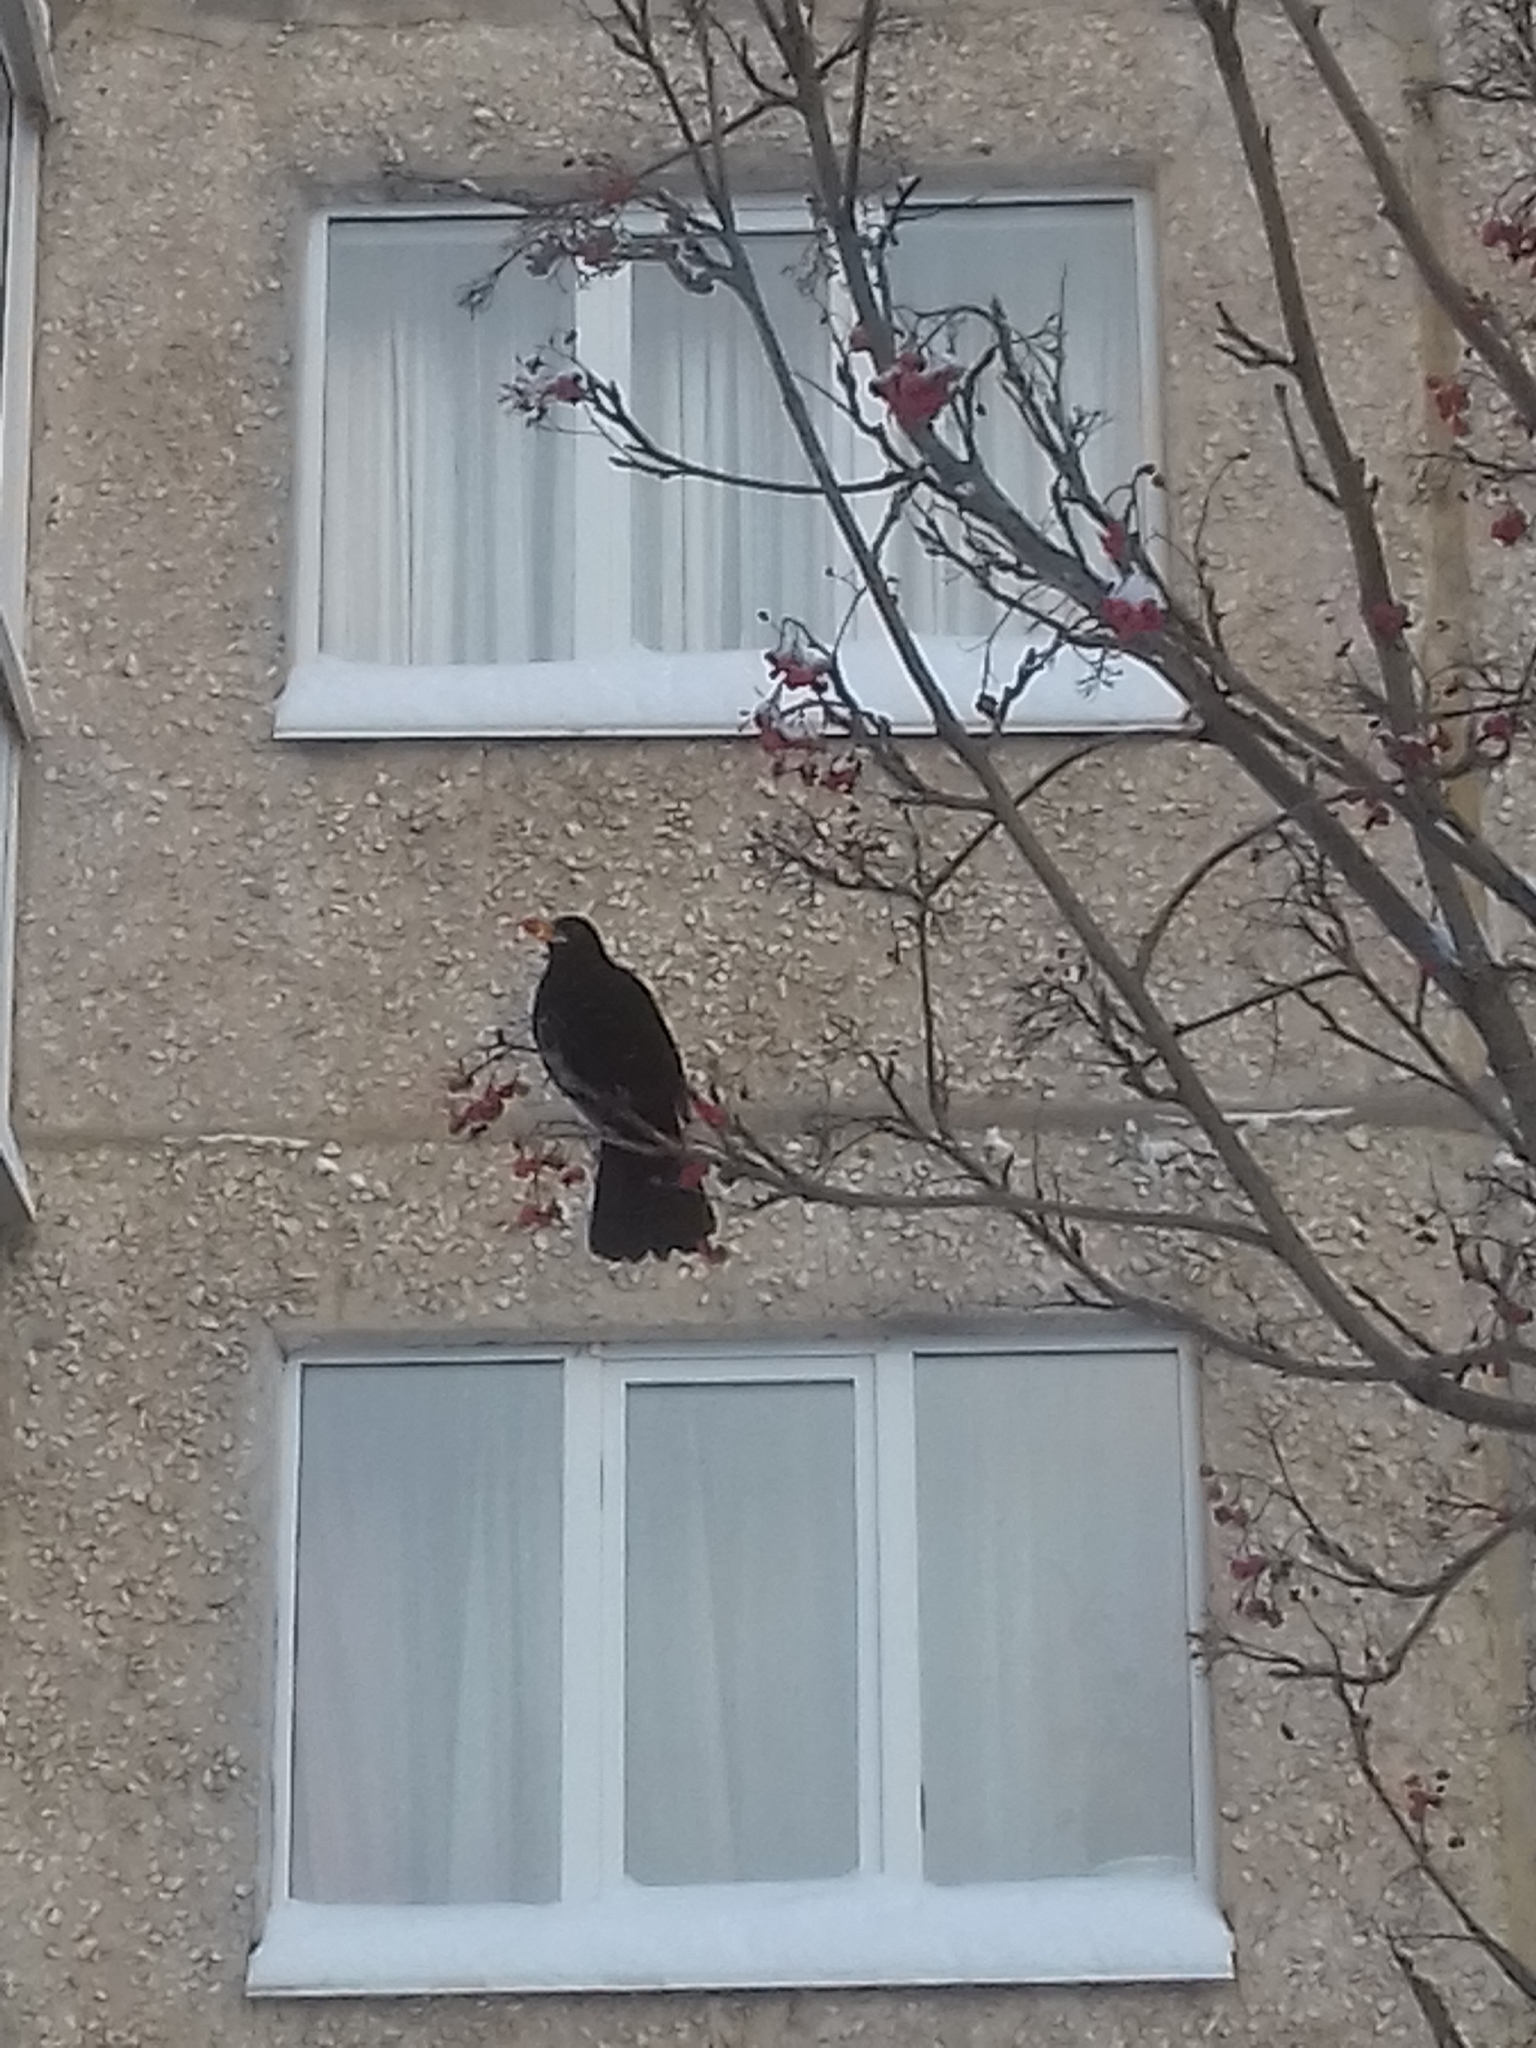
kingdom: Animalia
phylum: Chordata
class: Aves
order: Passeriformes
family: Turdidae
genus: Turdus
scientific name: Turdus merula
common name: Common blackbird
